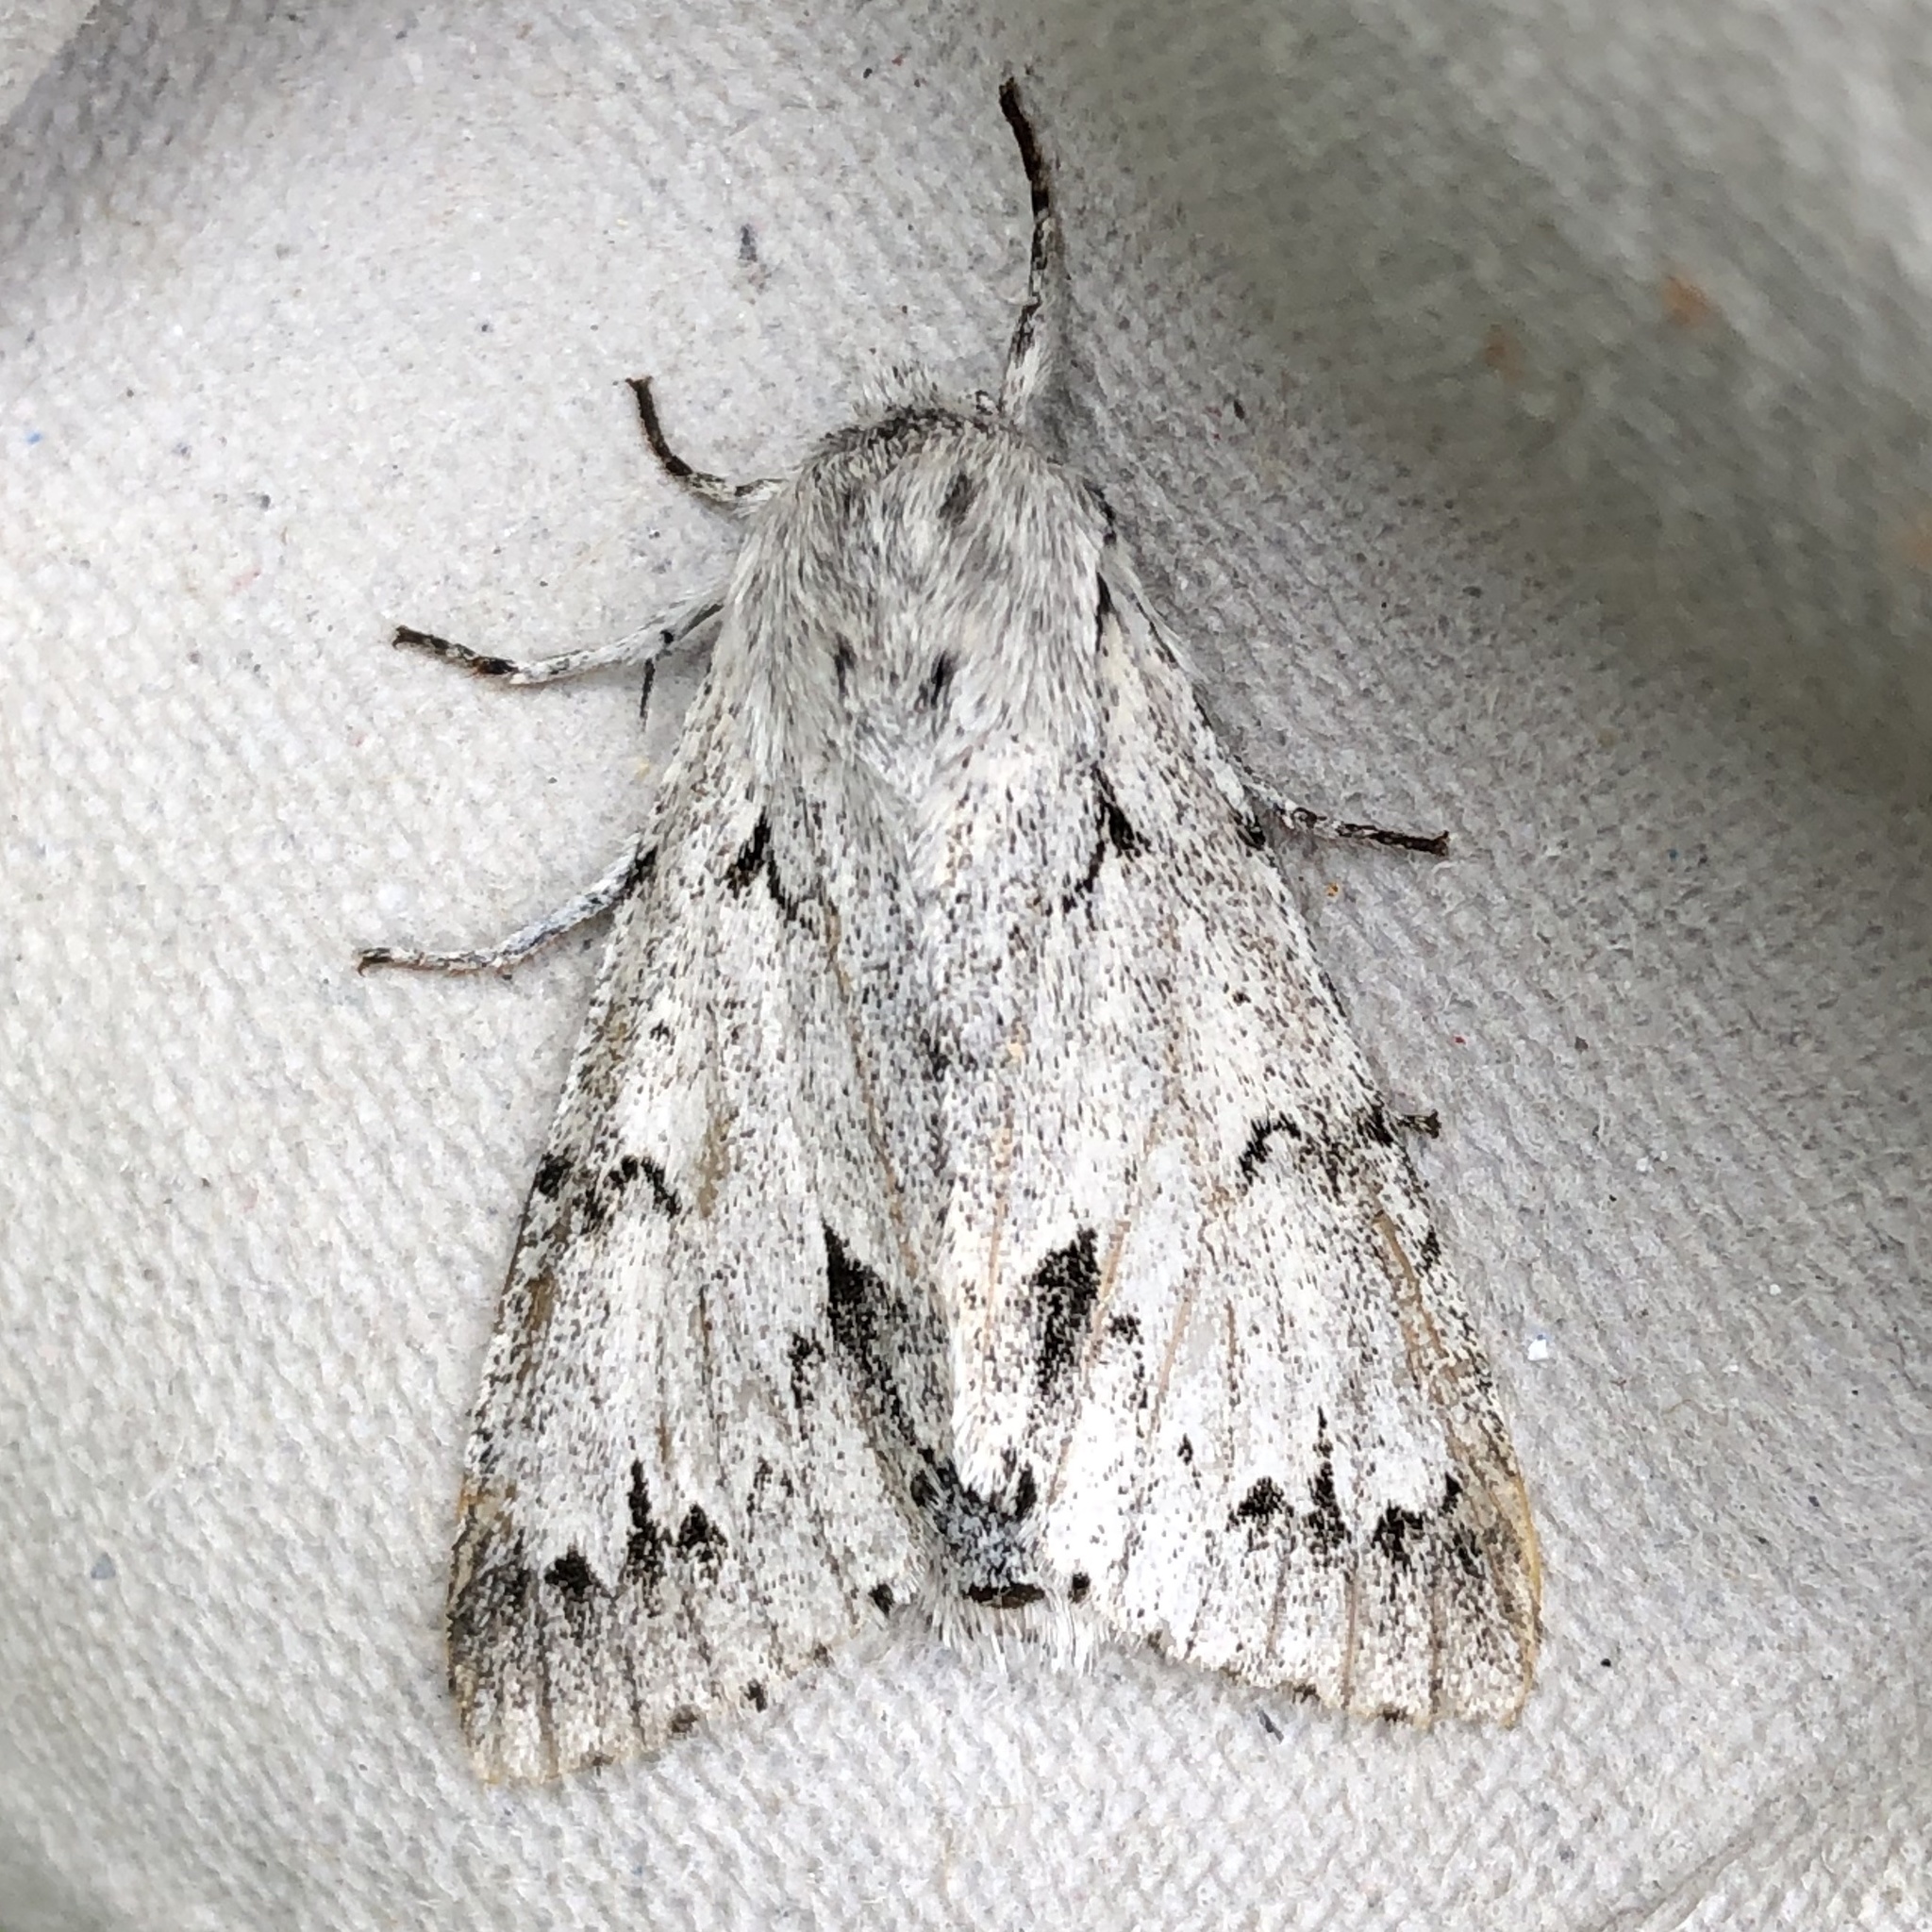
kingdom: Animalia
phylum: Arthropoda
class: Insecta
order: Lepidoptera
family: Noctuidae
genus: Acronicta
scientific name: Acronicta leporina
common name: Miller
